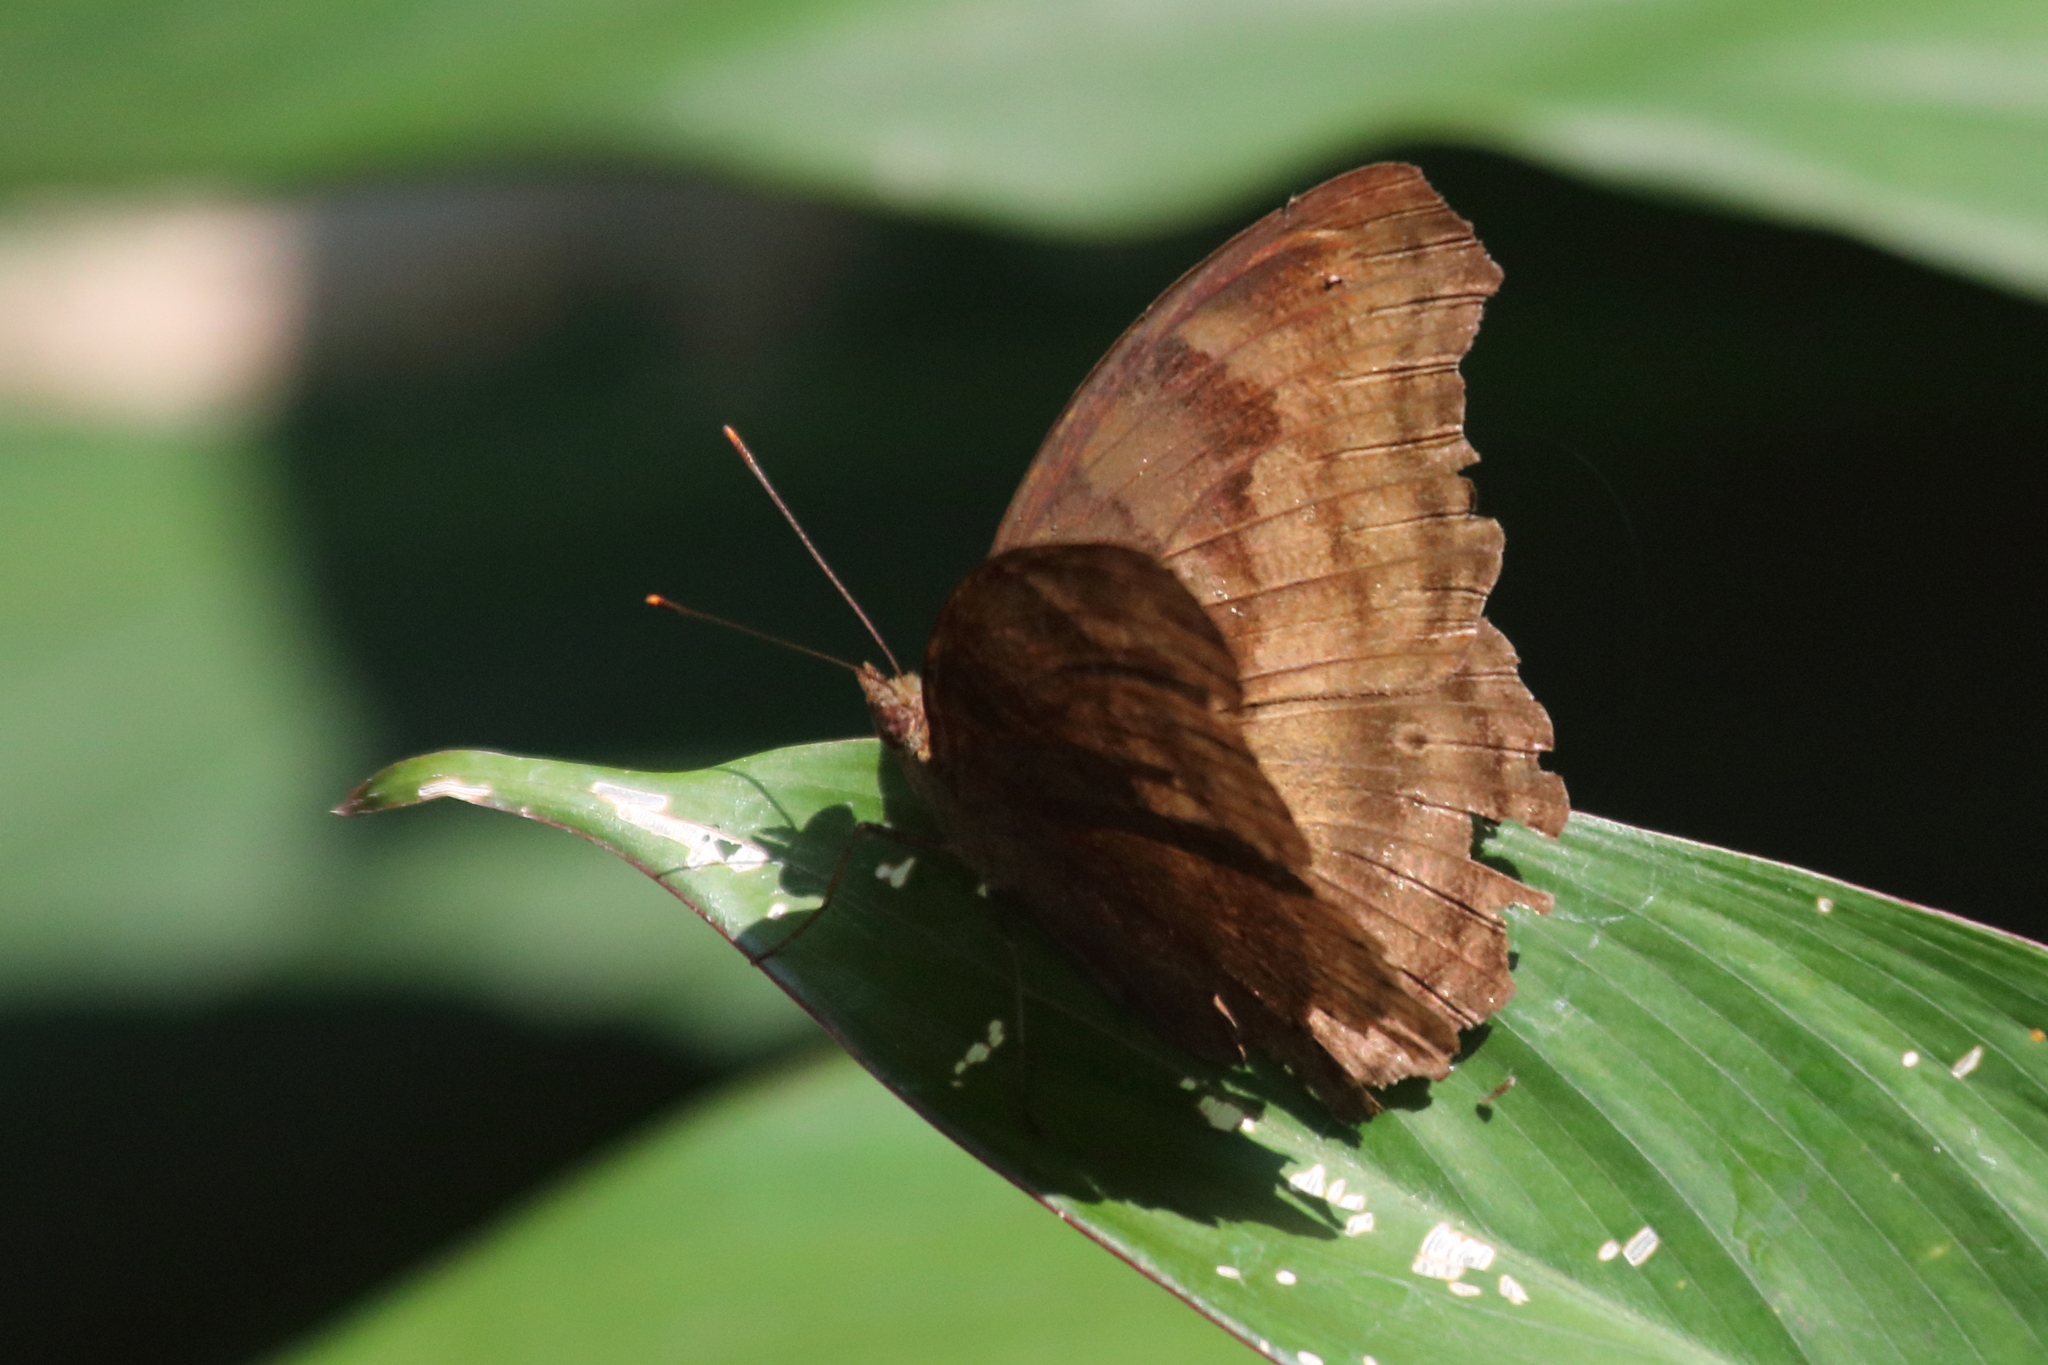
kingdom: Animalia
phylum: Arthropoda
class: Insecta
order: Lepidoptera
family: Nymphalidae
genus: Junonia
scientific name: Junonia iphita
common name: Chocolate pansy
